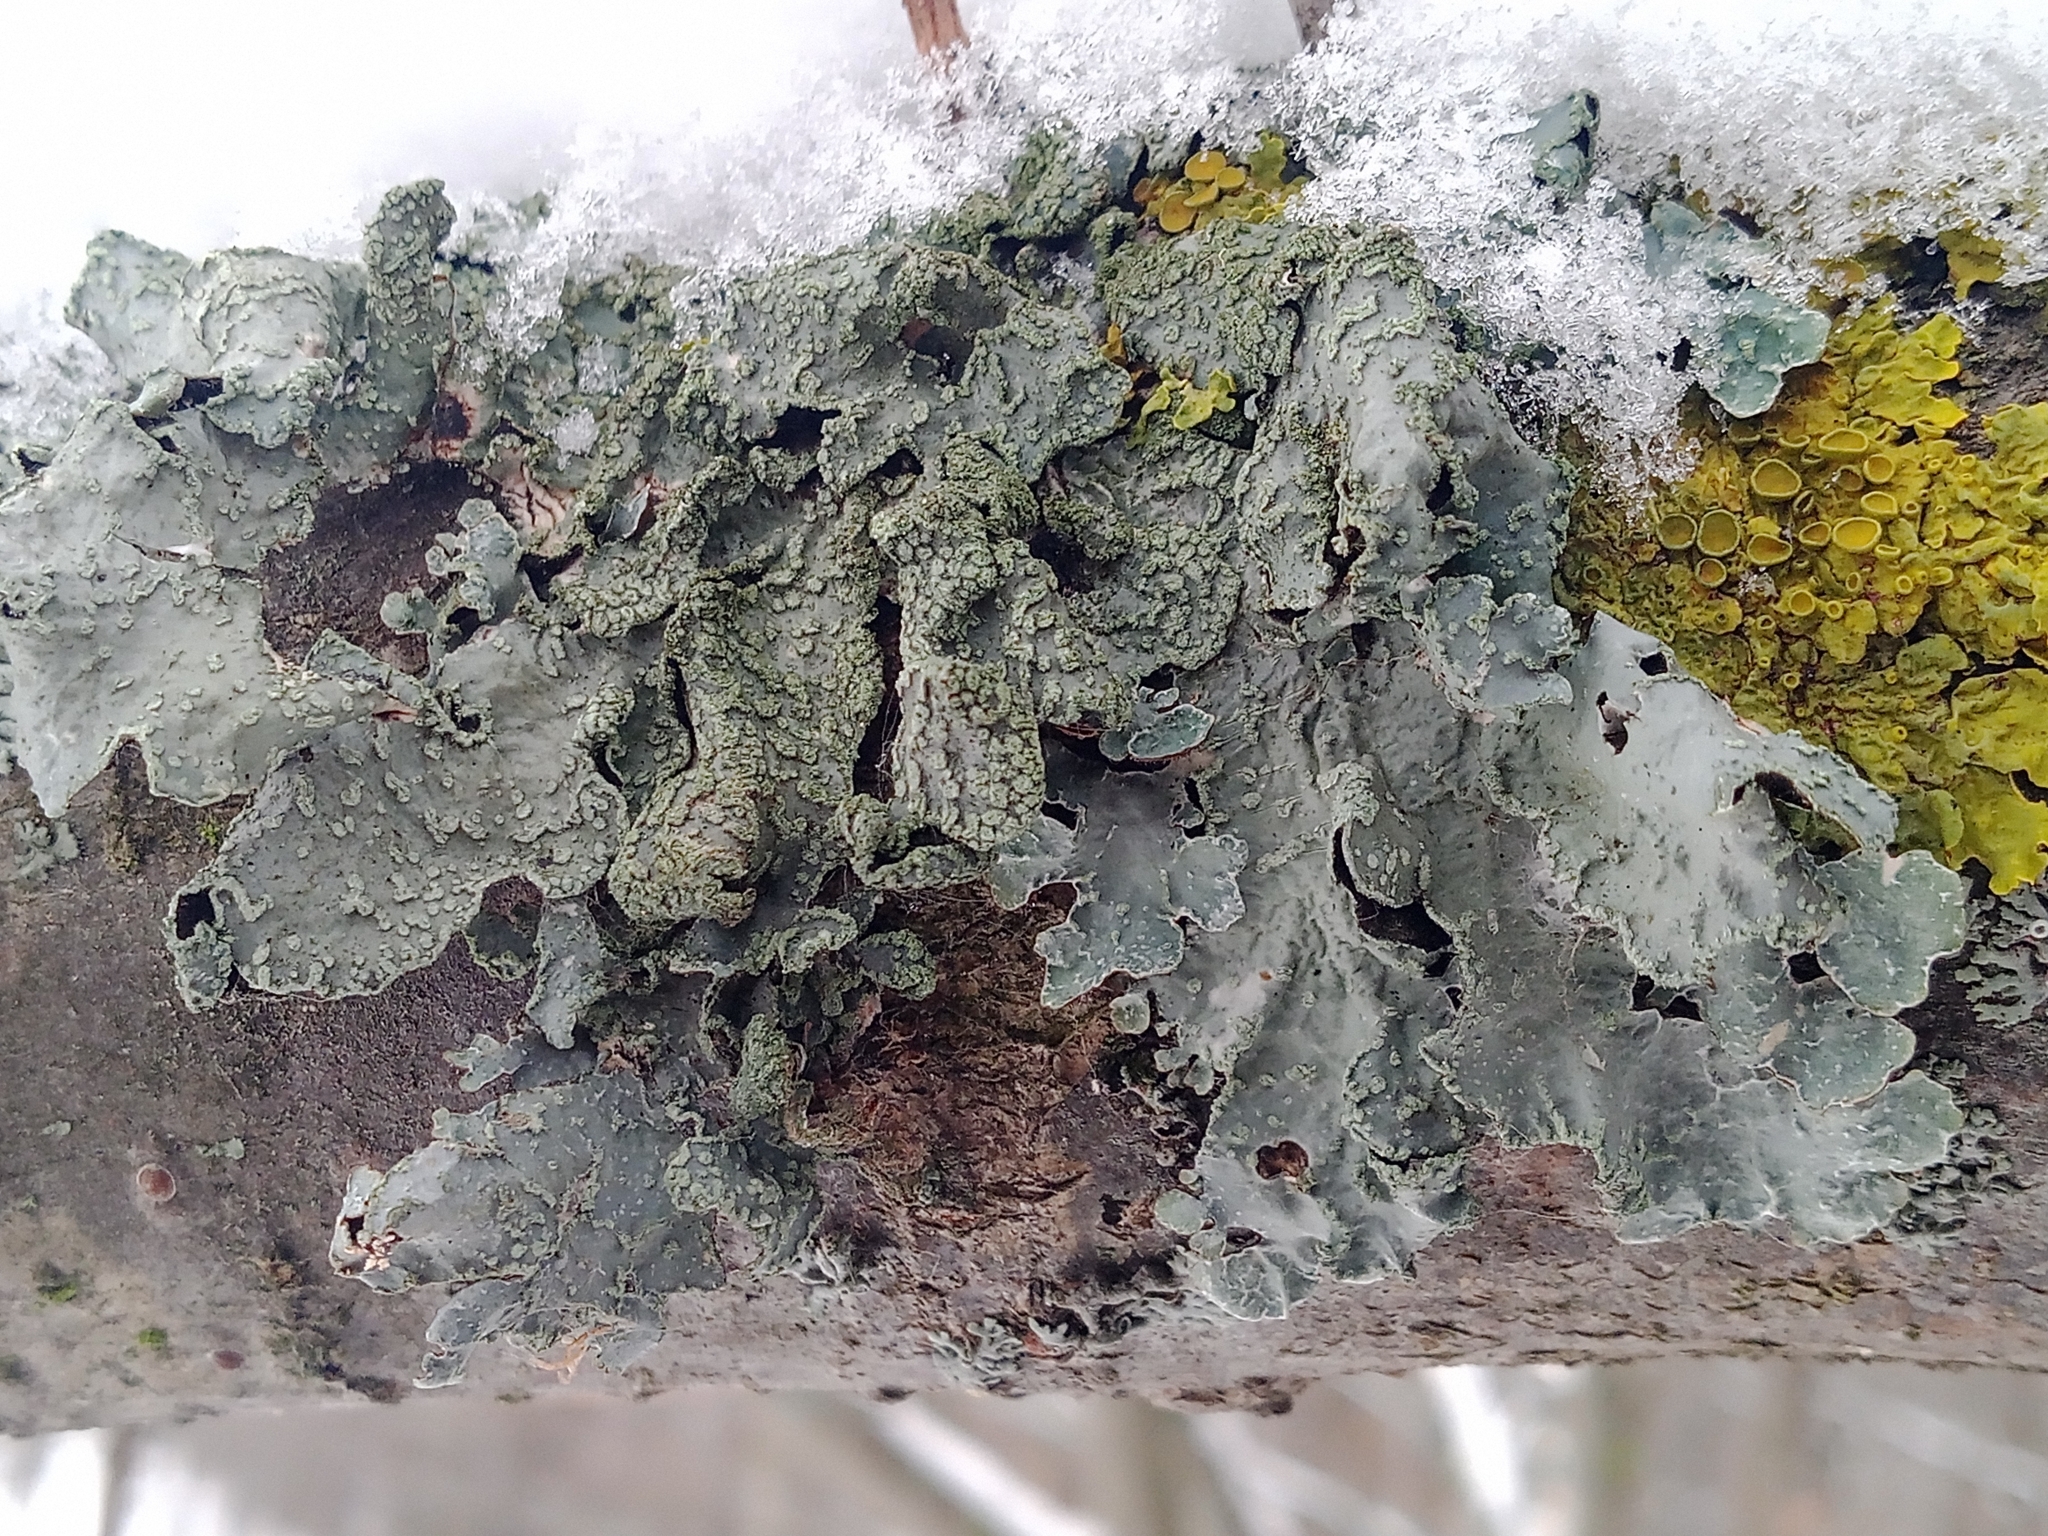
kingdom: Fungi
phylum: Ascomycota
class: Lecanoromycetes
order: Lecanorales
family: Parmeliaceae
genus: Parmelia
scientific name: Parmelia sulcata
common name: Netted shield lichen
